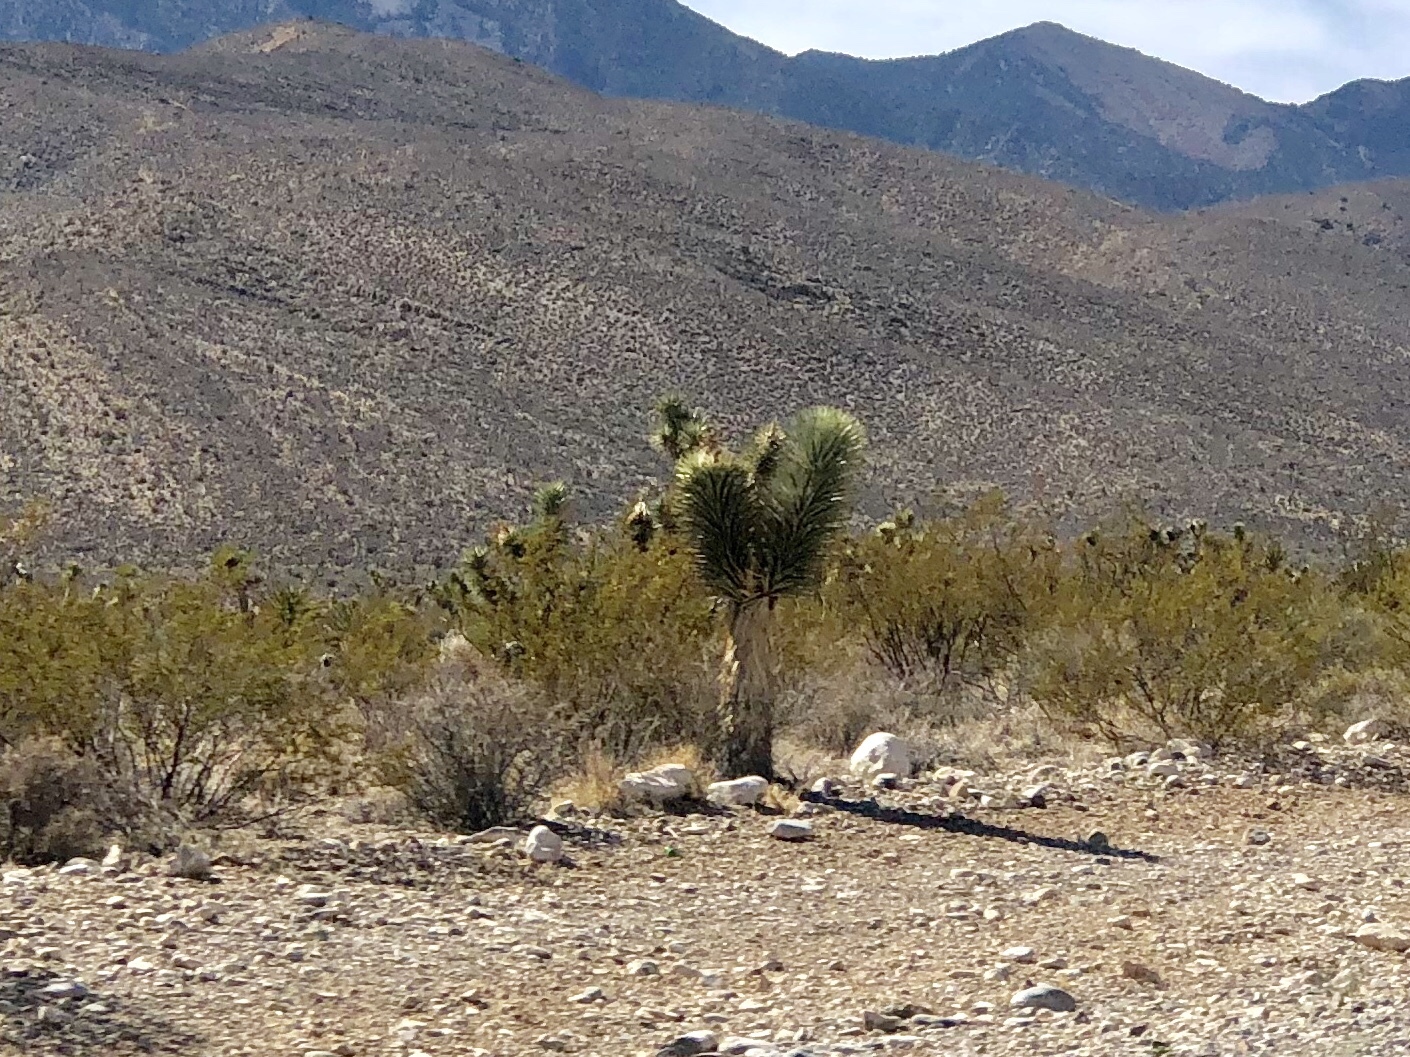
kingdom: Plantae
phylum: Tracheophyta
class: Liliopsida
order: Asparagales
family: Asparagaceae
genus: Yucca
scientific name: Yucca brevifolia
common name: Joshua tree
